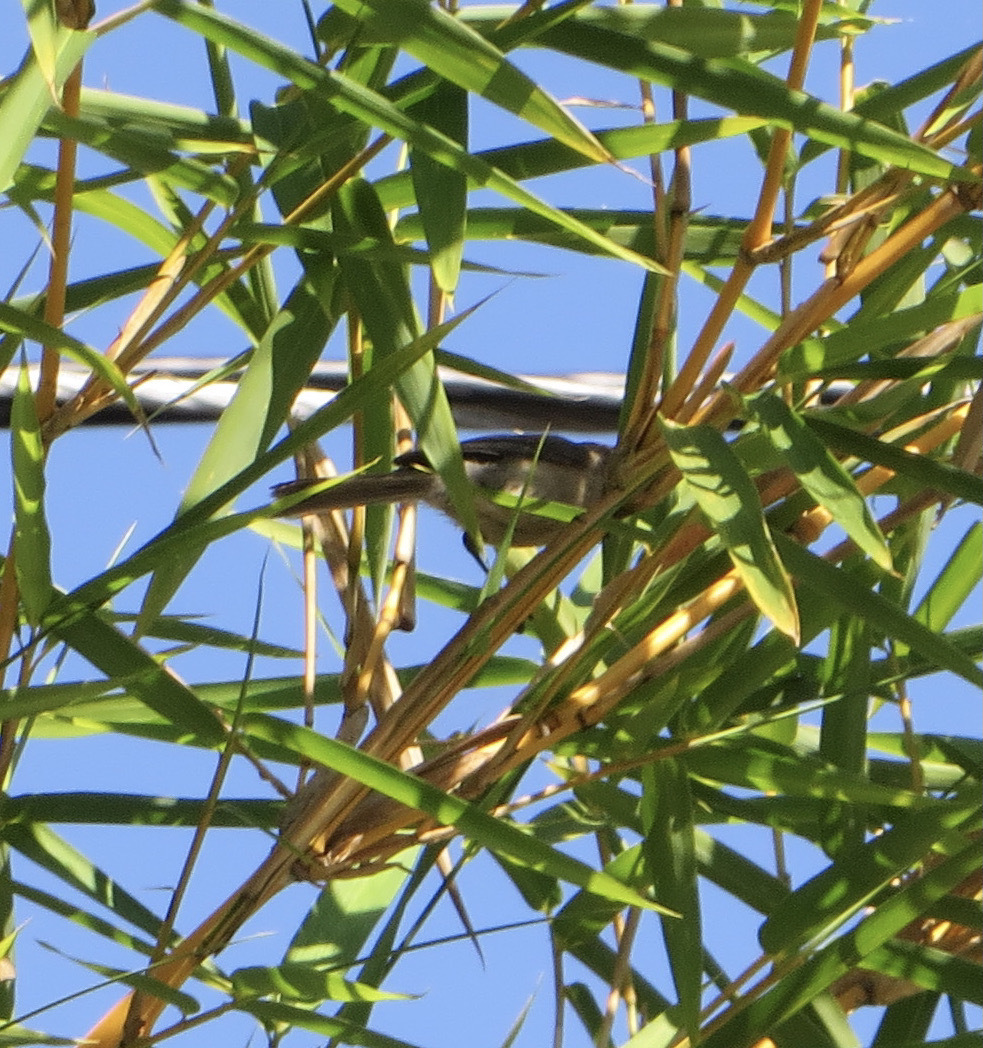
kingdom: Animalia
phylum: Chordata
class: Aves
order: Passeriformes
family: Aegithalidae
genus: Psaltriparus
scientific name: Psaltriparus minimus
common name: American bushtit
